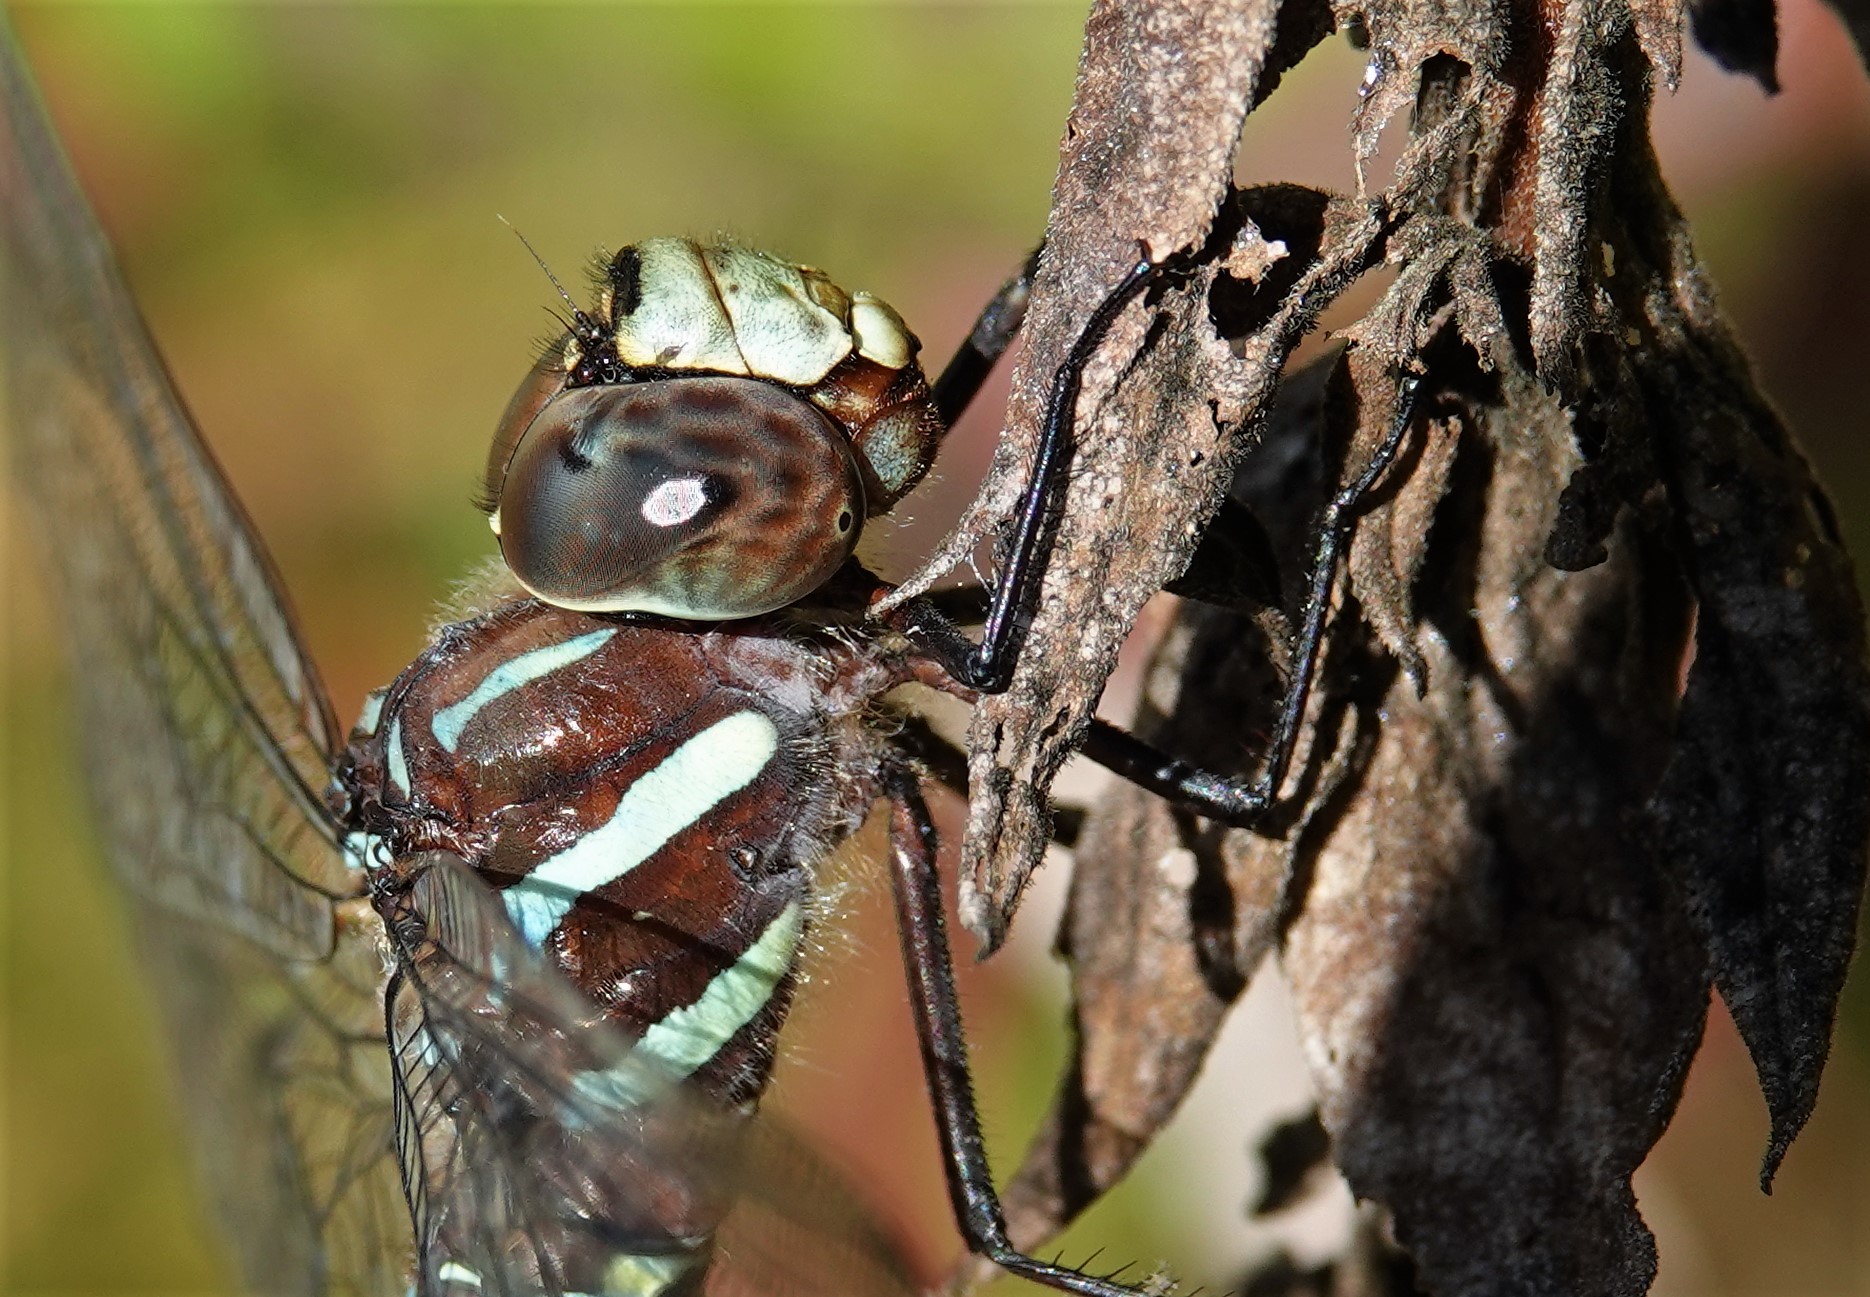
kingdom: Animalia
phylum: Arthropoda
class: Insecta
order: Odonata
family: Aeshnidae
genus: Aeshna
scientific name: Aeshna tuberculifera
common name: Aeschne à tubercules
